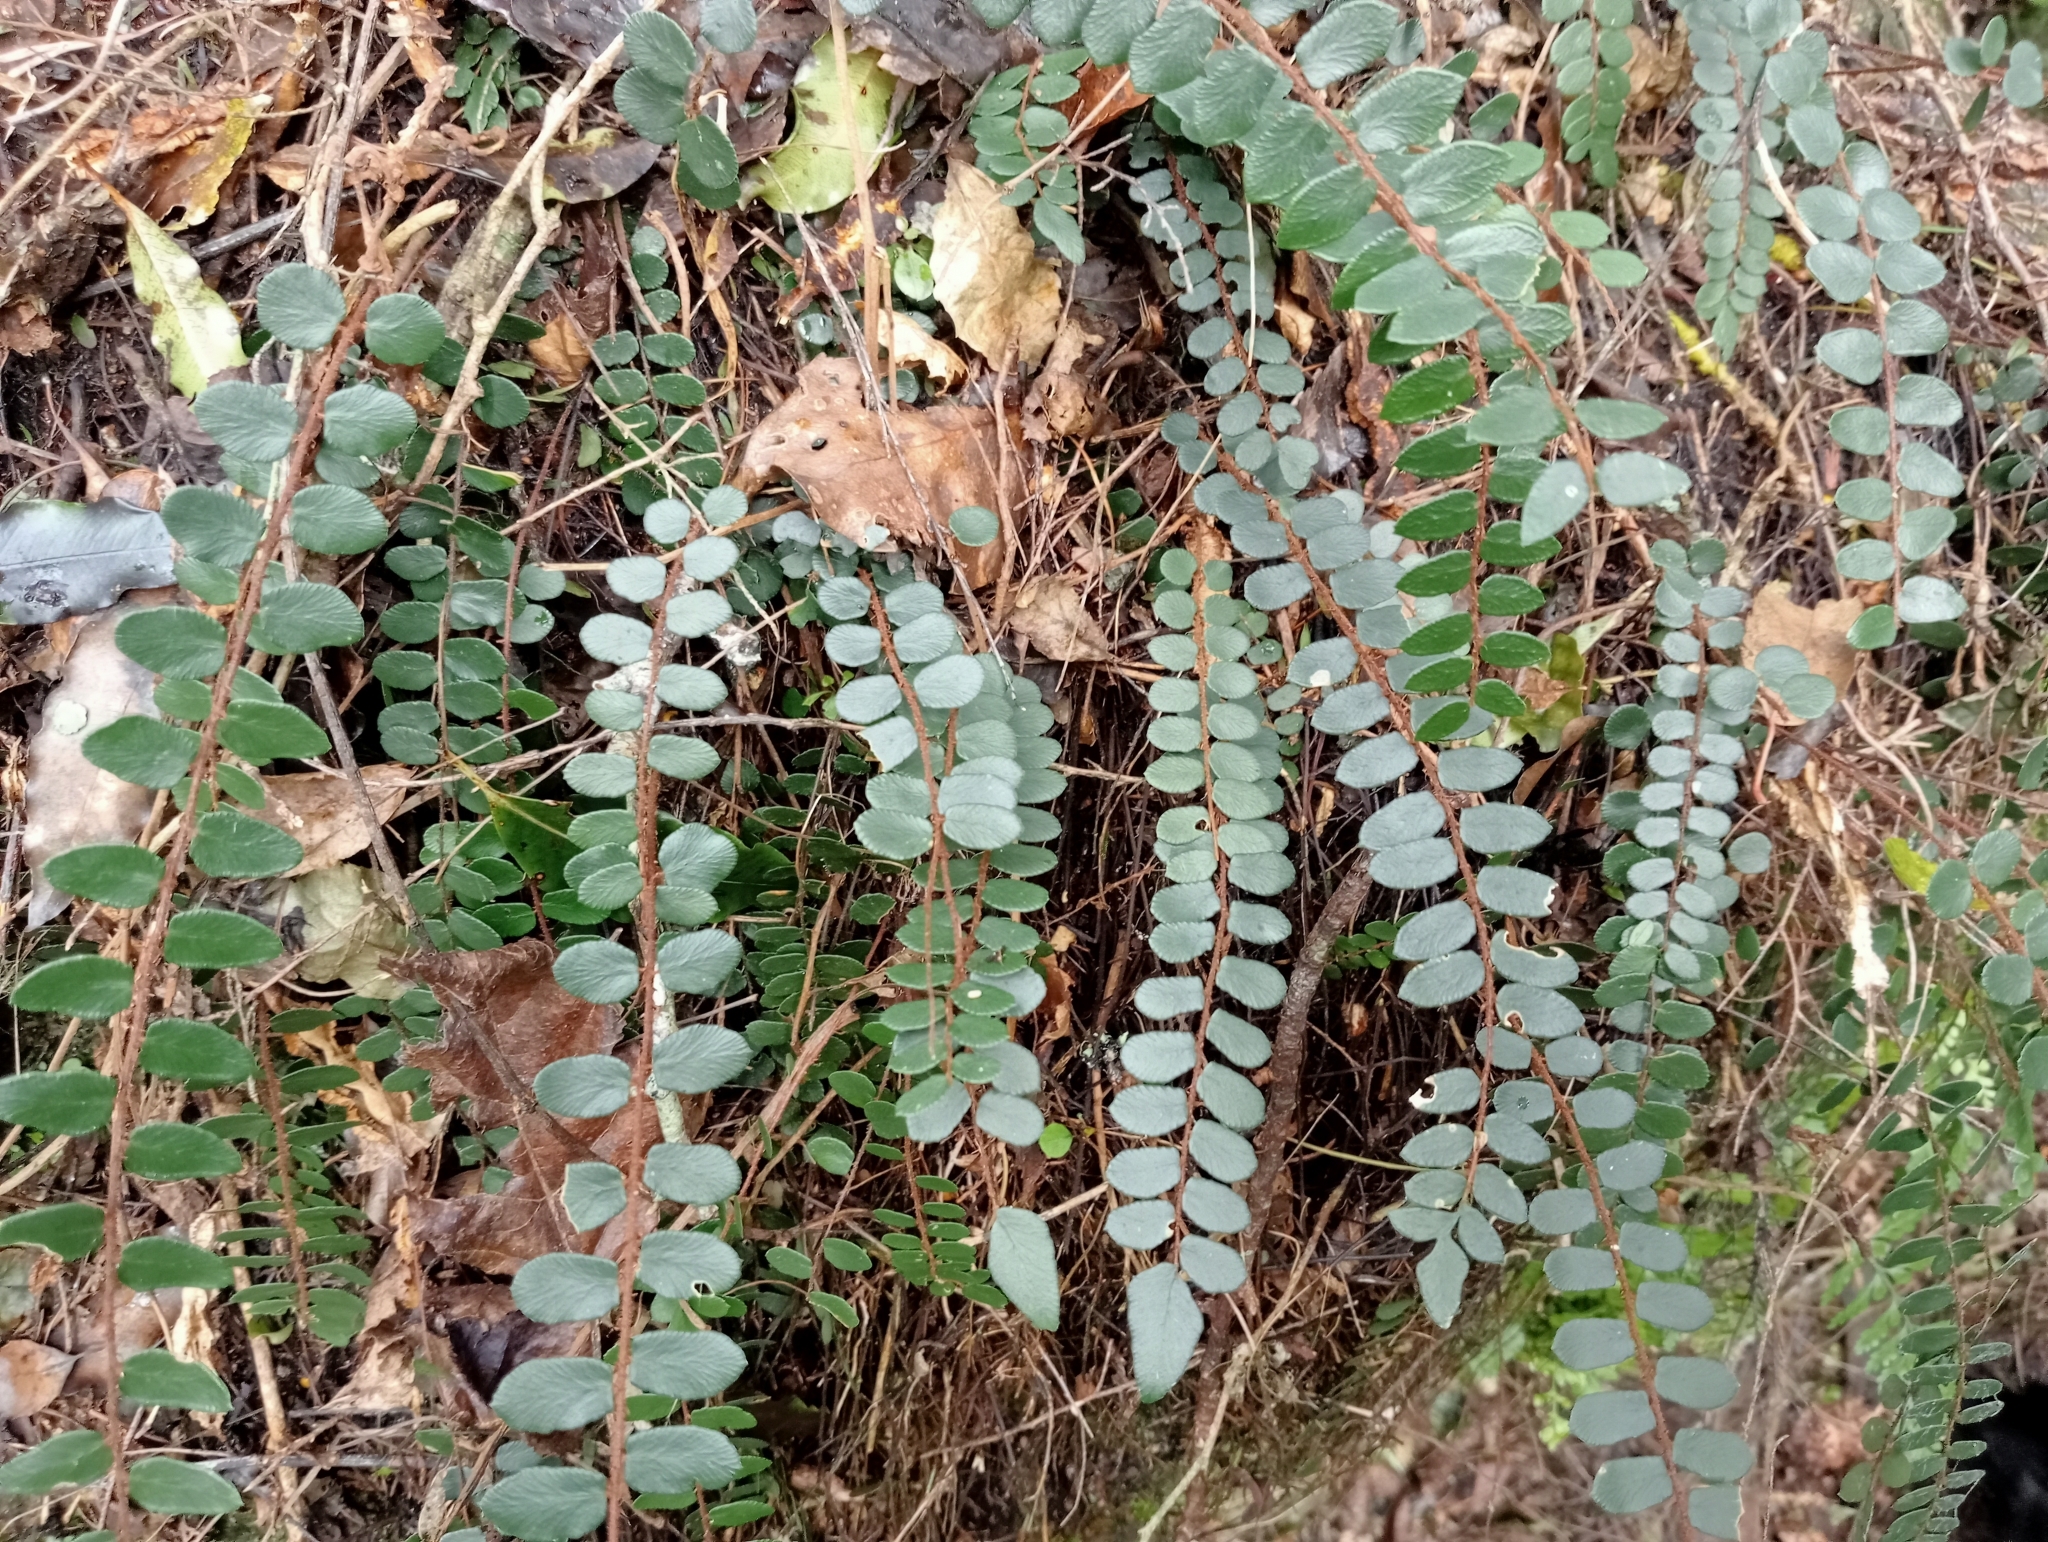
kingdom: Plantae
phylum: Tracheophyta
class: Polypodiopsida
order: Polypodiales
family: Pteridaceae
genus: Pellaea
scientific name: Pellaea rotundifolia
